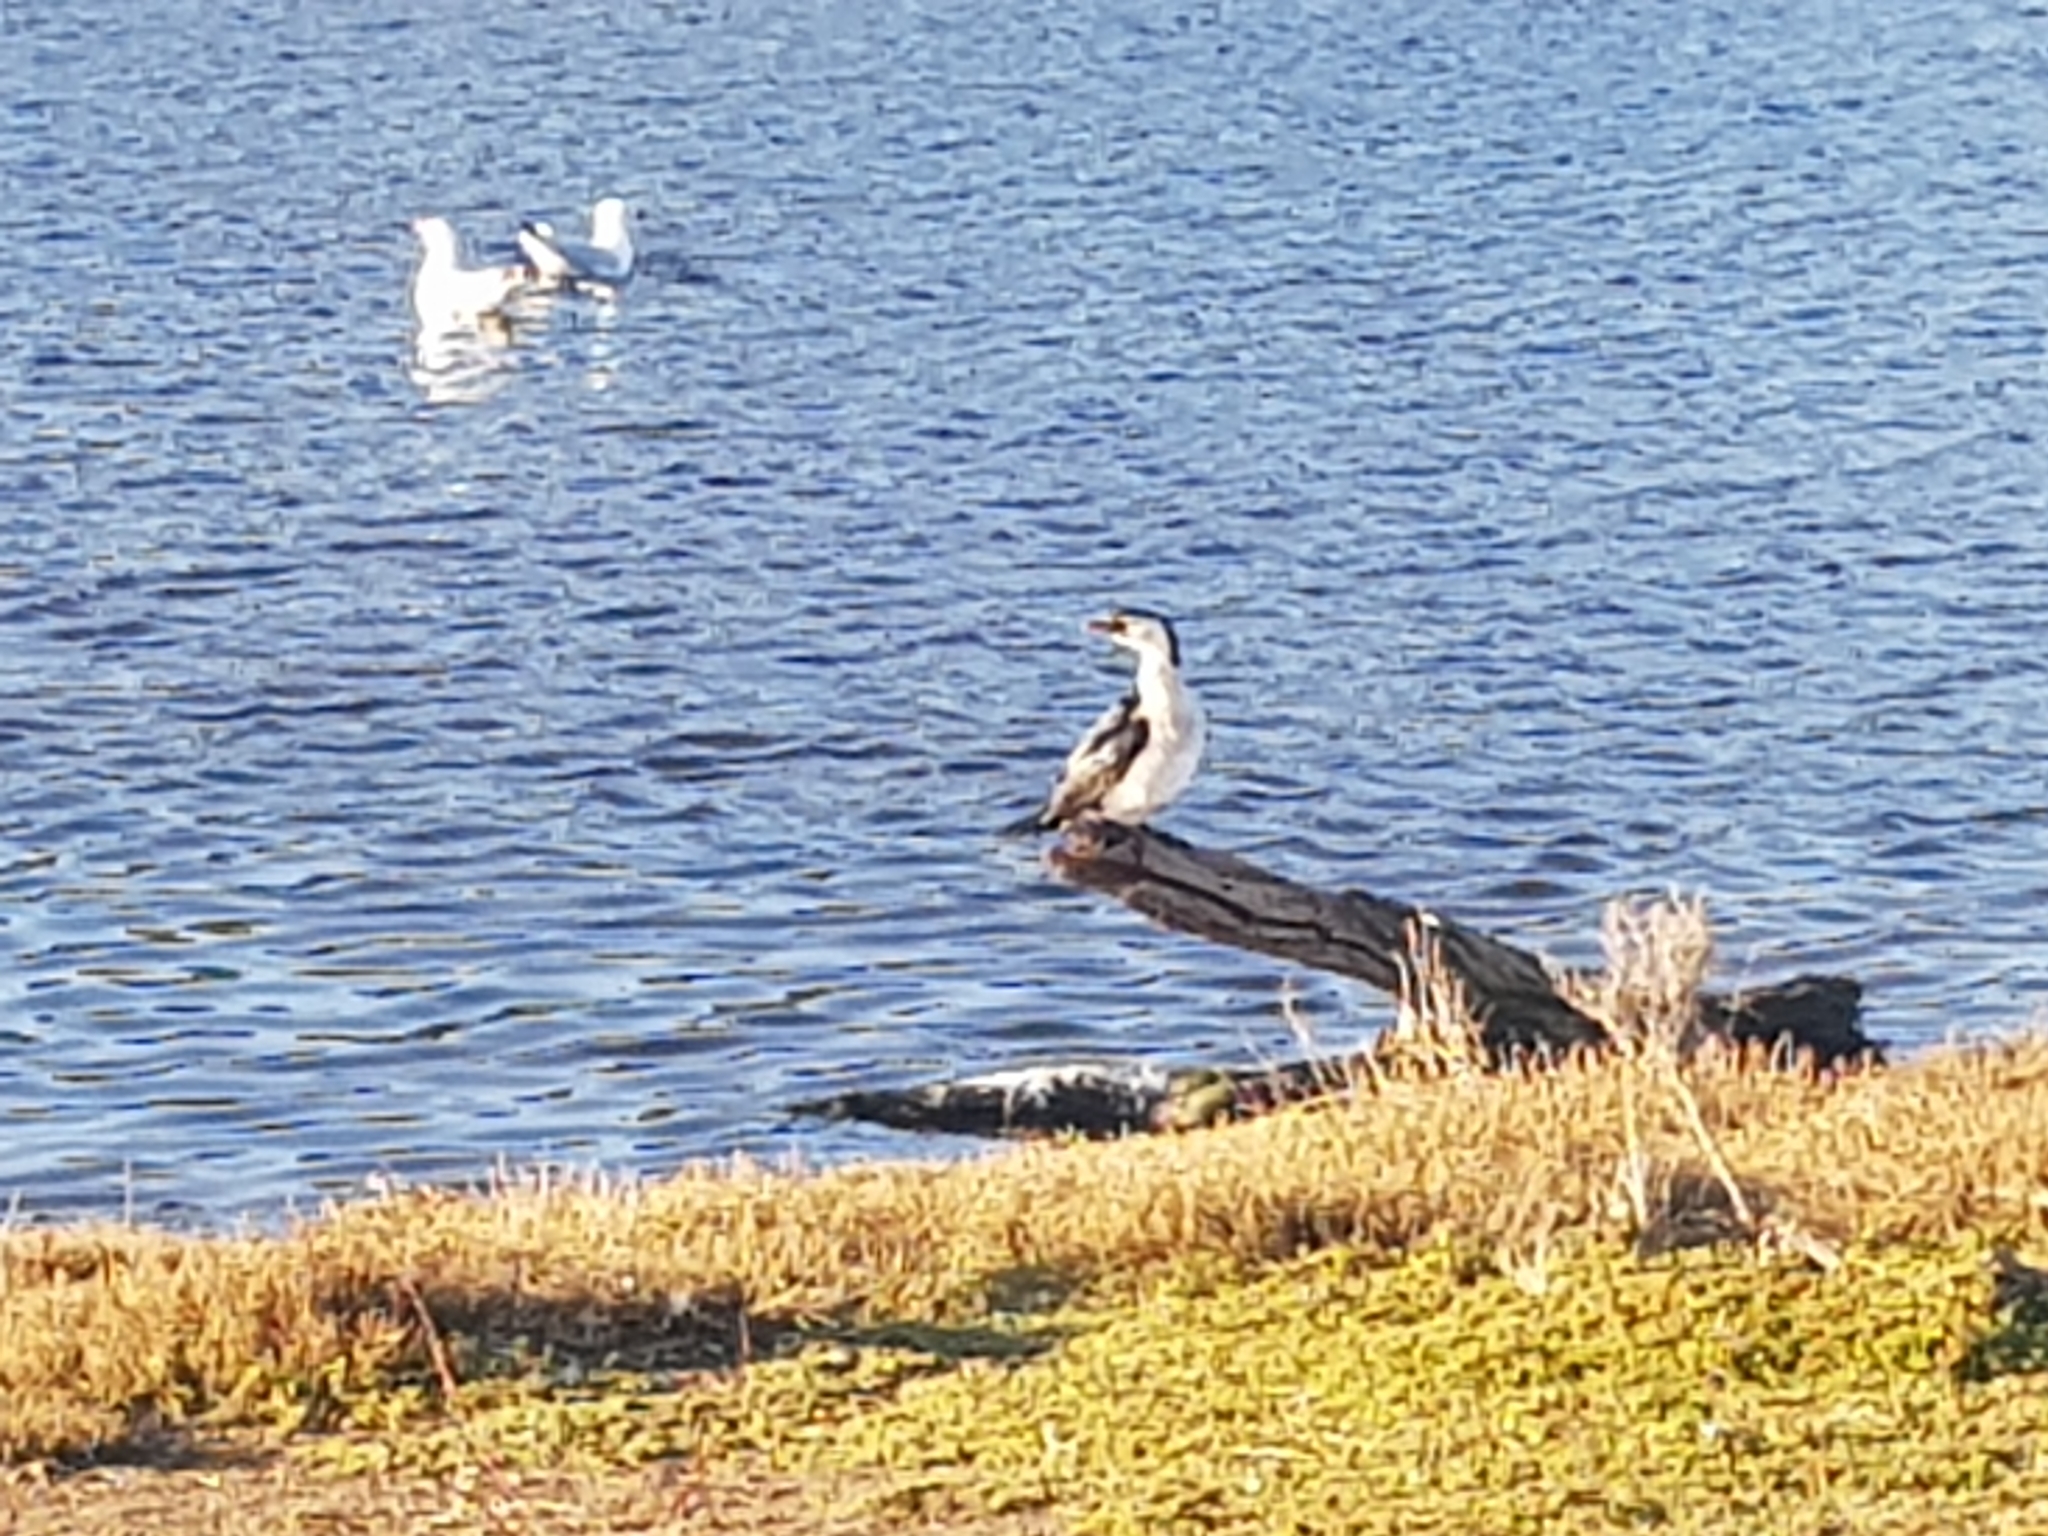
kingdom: Animalia
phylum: Chordata
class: Aves
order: Suliformes
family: Phalacrocoracidae
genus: Microcarbo
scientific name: Microcarbo melanoleucos
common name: Little pied cormorant
